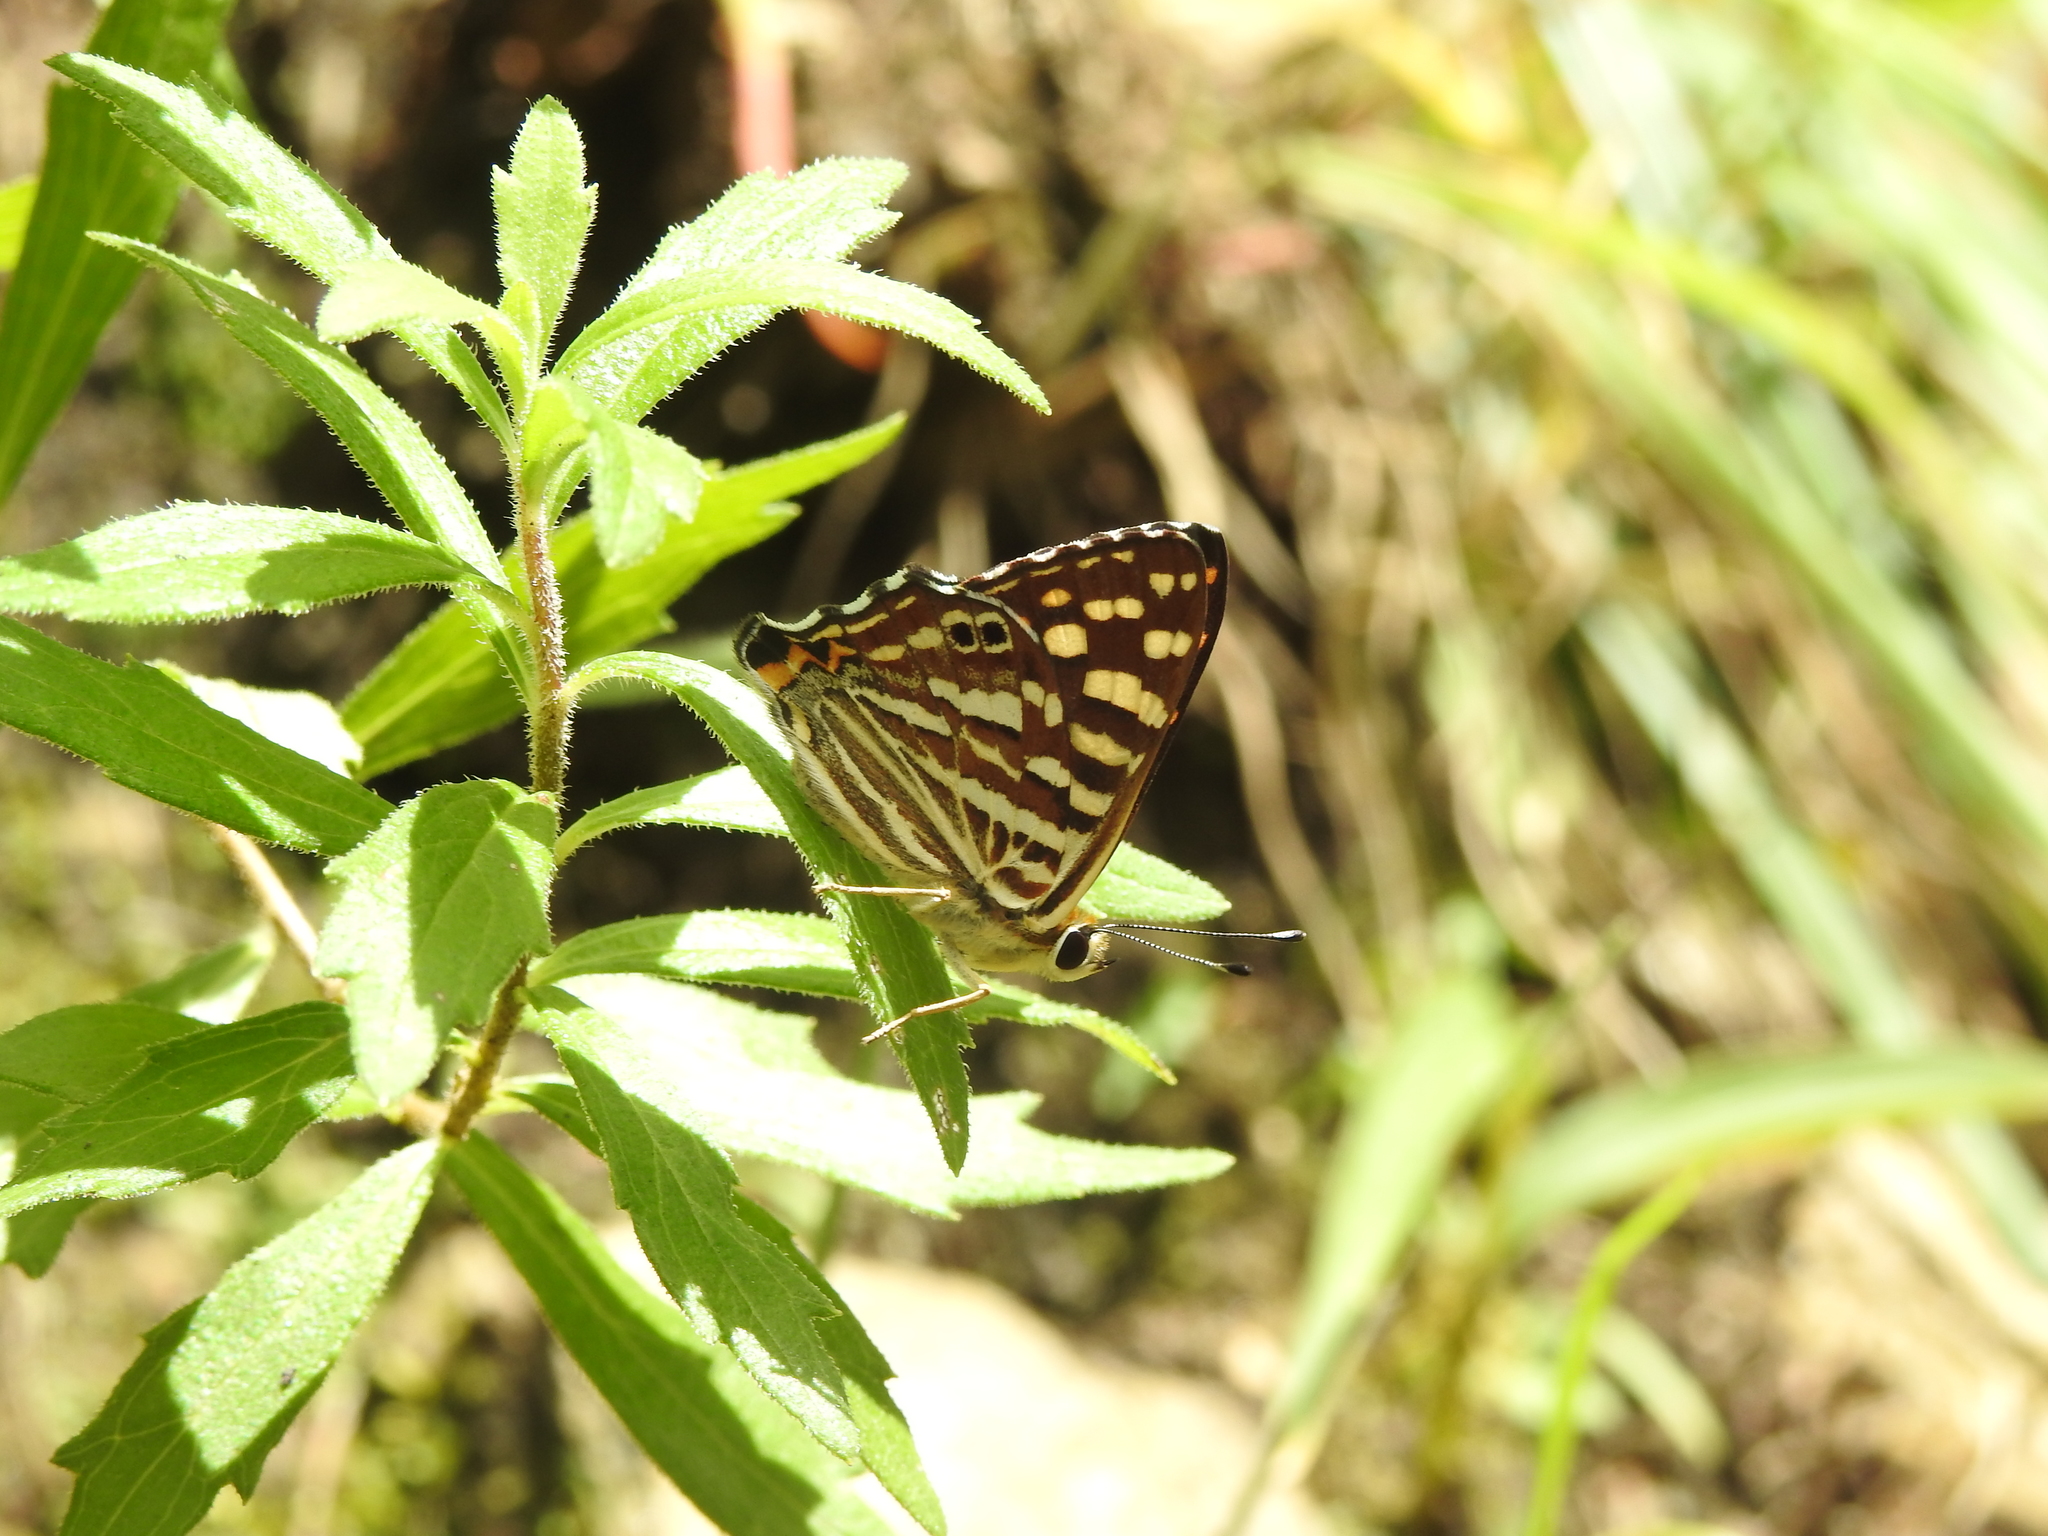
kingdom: Animalia
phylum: Arthropoda
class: Insecta
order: Lepidoptera
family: Lycaenidae
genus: Dodona
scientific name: Dodona durga
